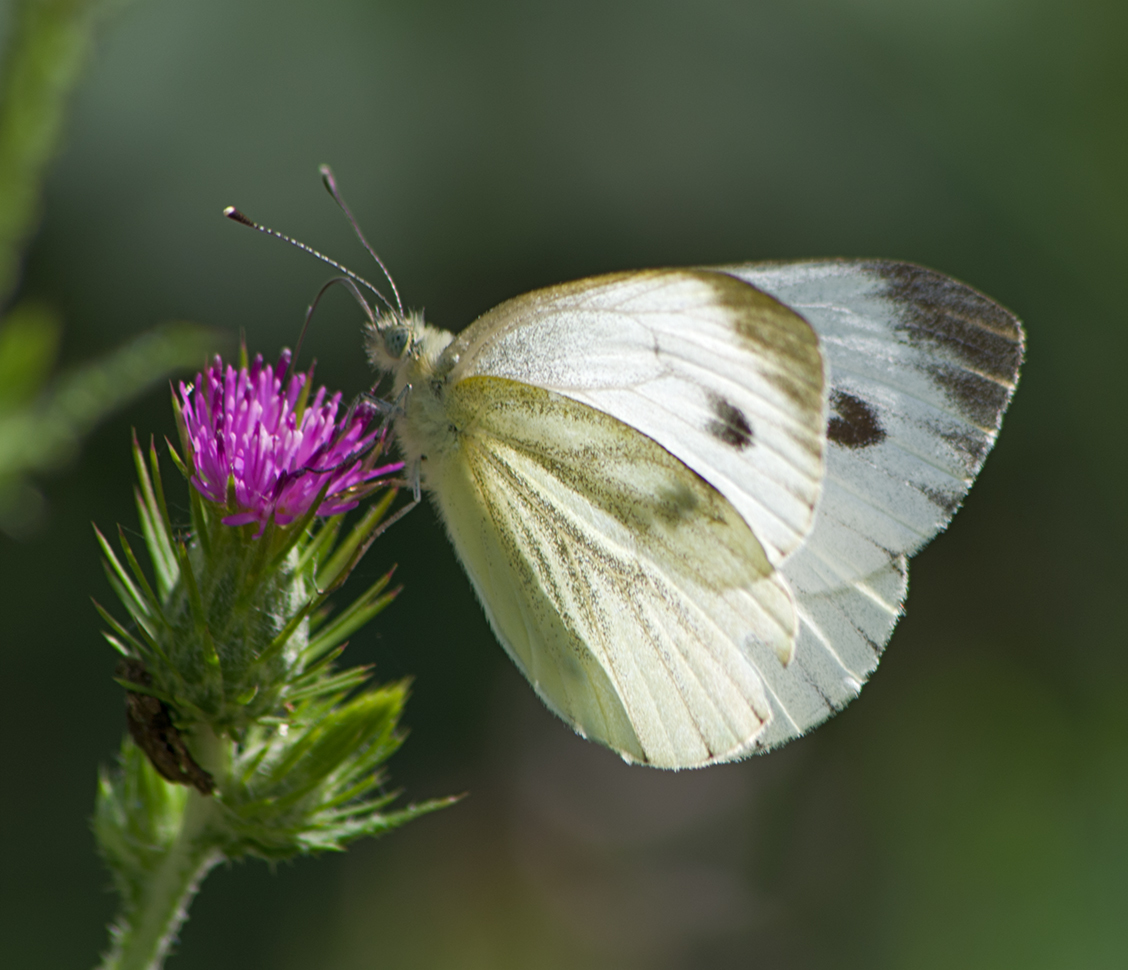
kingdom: Animalia
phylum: Arthropoda
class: Insecta
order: Lepidoptera
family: Pieridae
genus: Pieris
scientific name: Pieris napi
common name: Green-veined white
